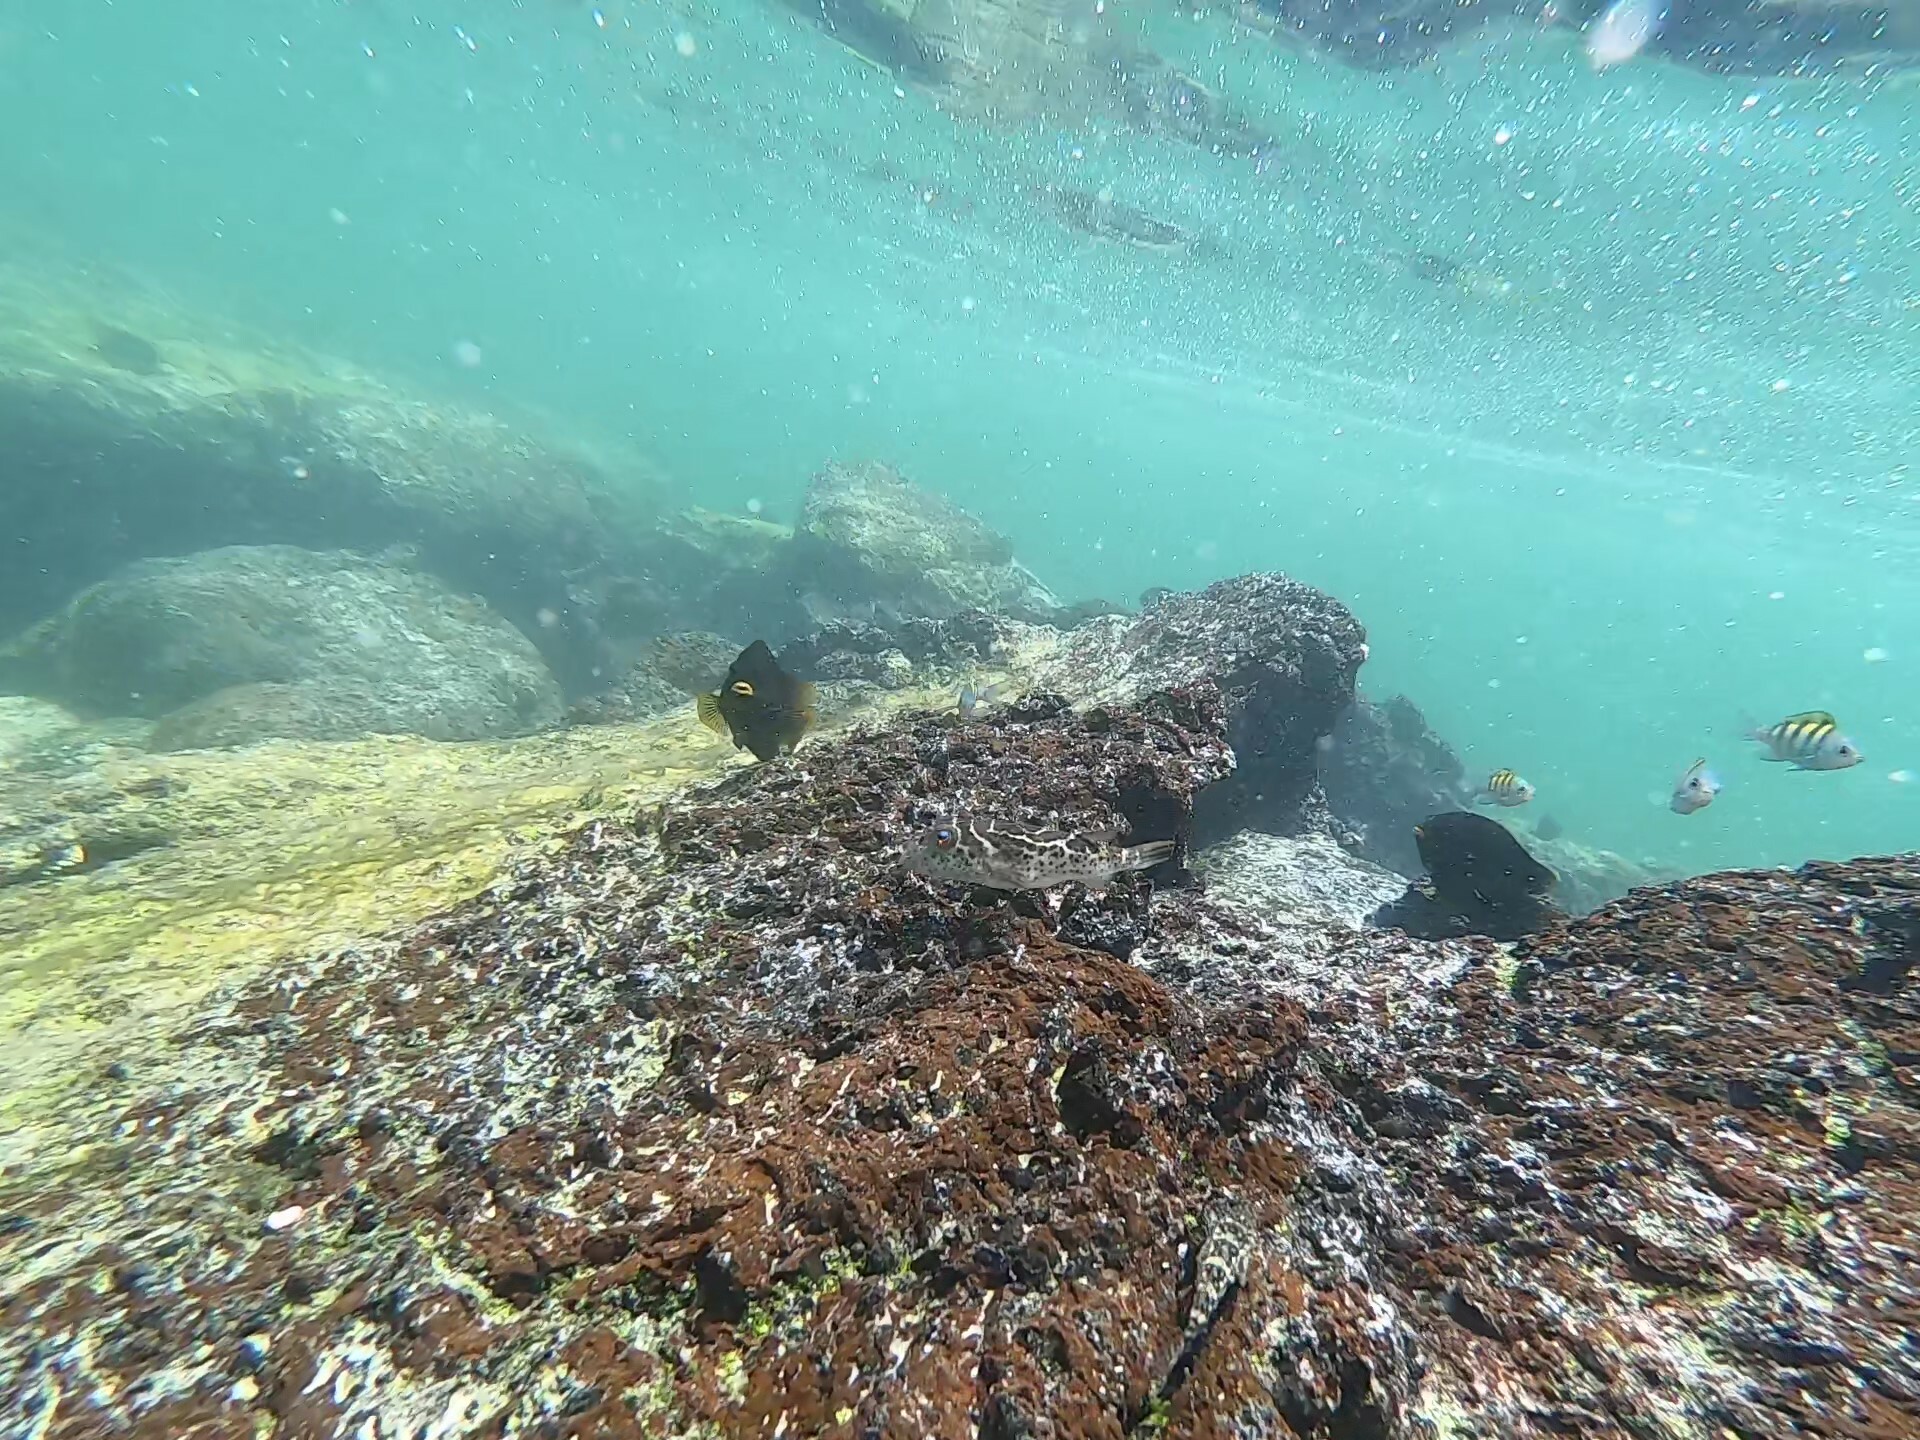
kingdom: Animalia
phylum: Chordata
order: Tetraodontiformes
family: Tetraodontidae
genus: Sphoeroides
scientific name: Sphoeroides annulatus
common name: Bullseye puffer
